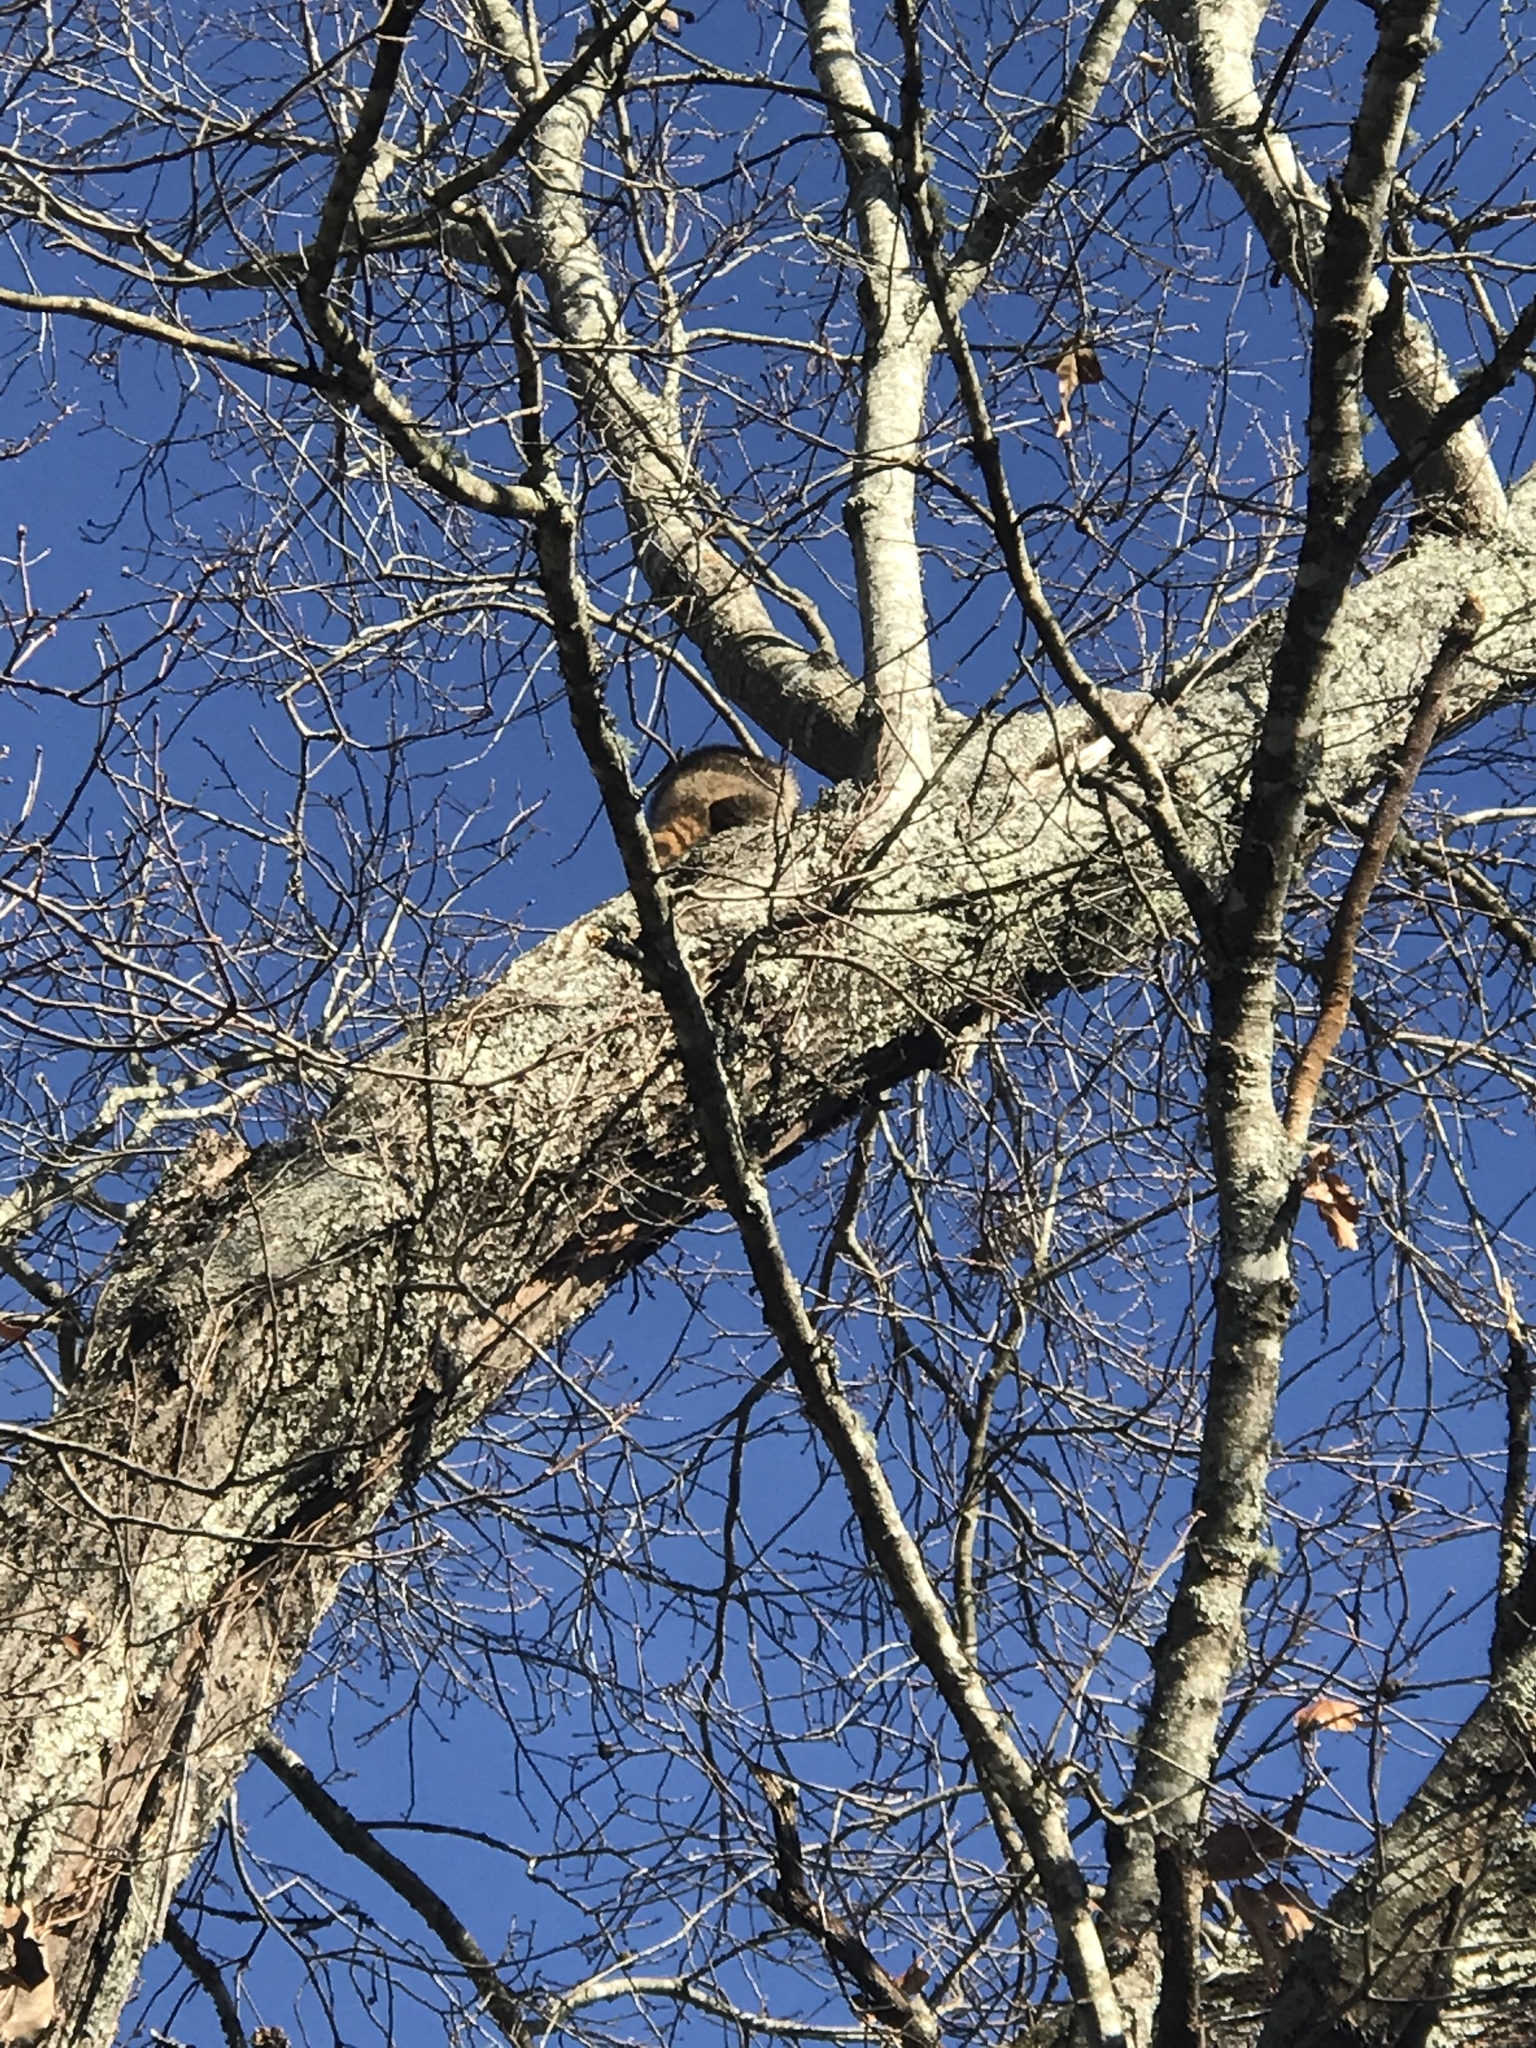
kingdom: Animalia
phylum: Chordata
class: Mammalia
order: Carnivora
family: Procyonidae
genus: Procyon
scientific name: Procyon lotor
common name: Raccoon
